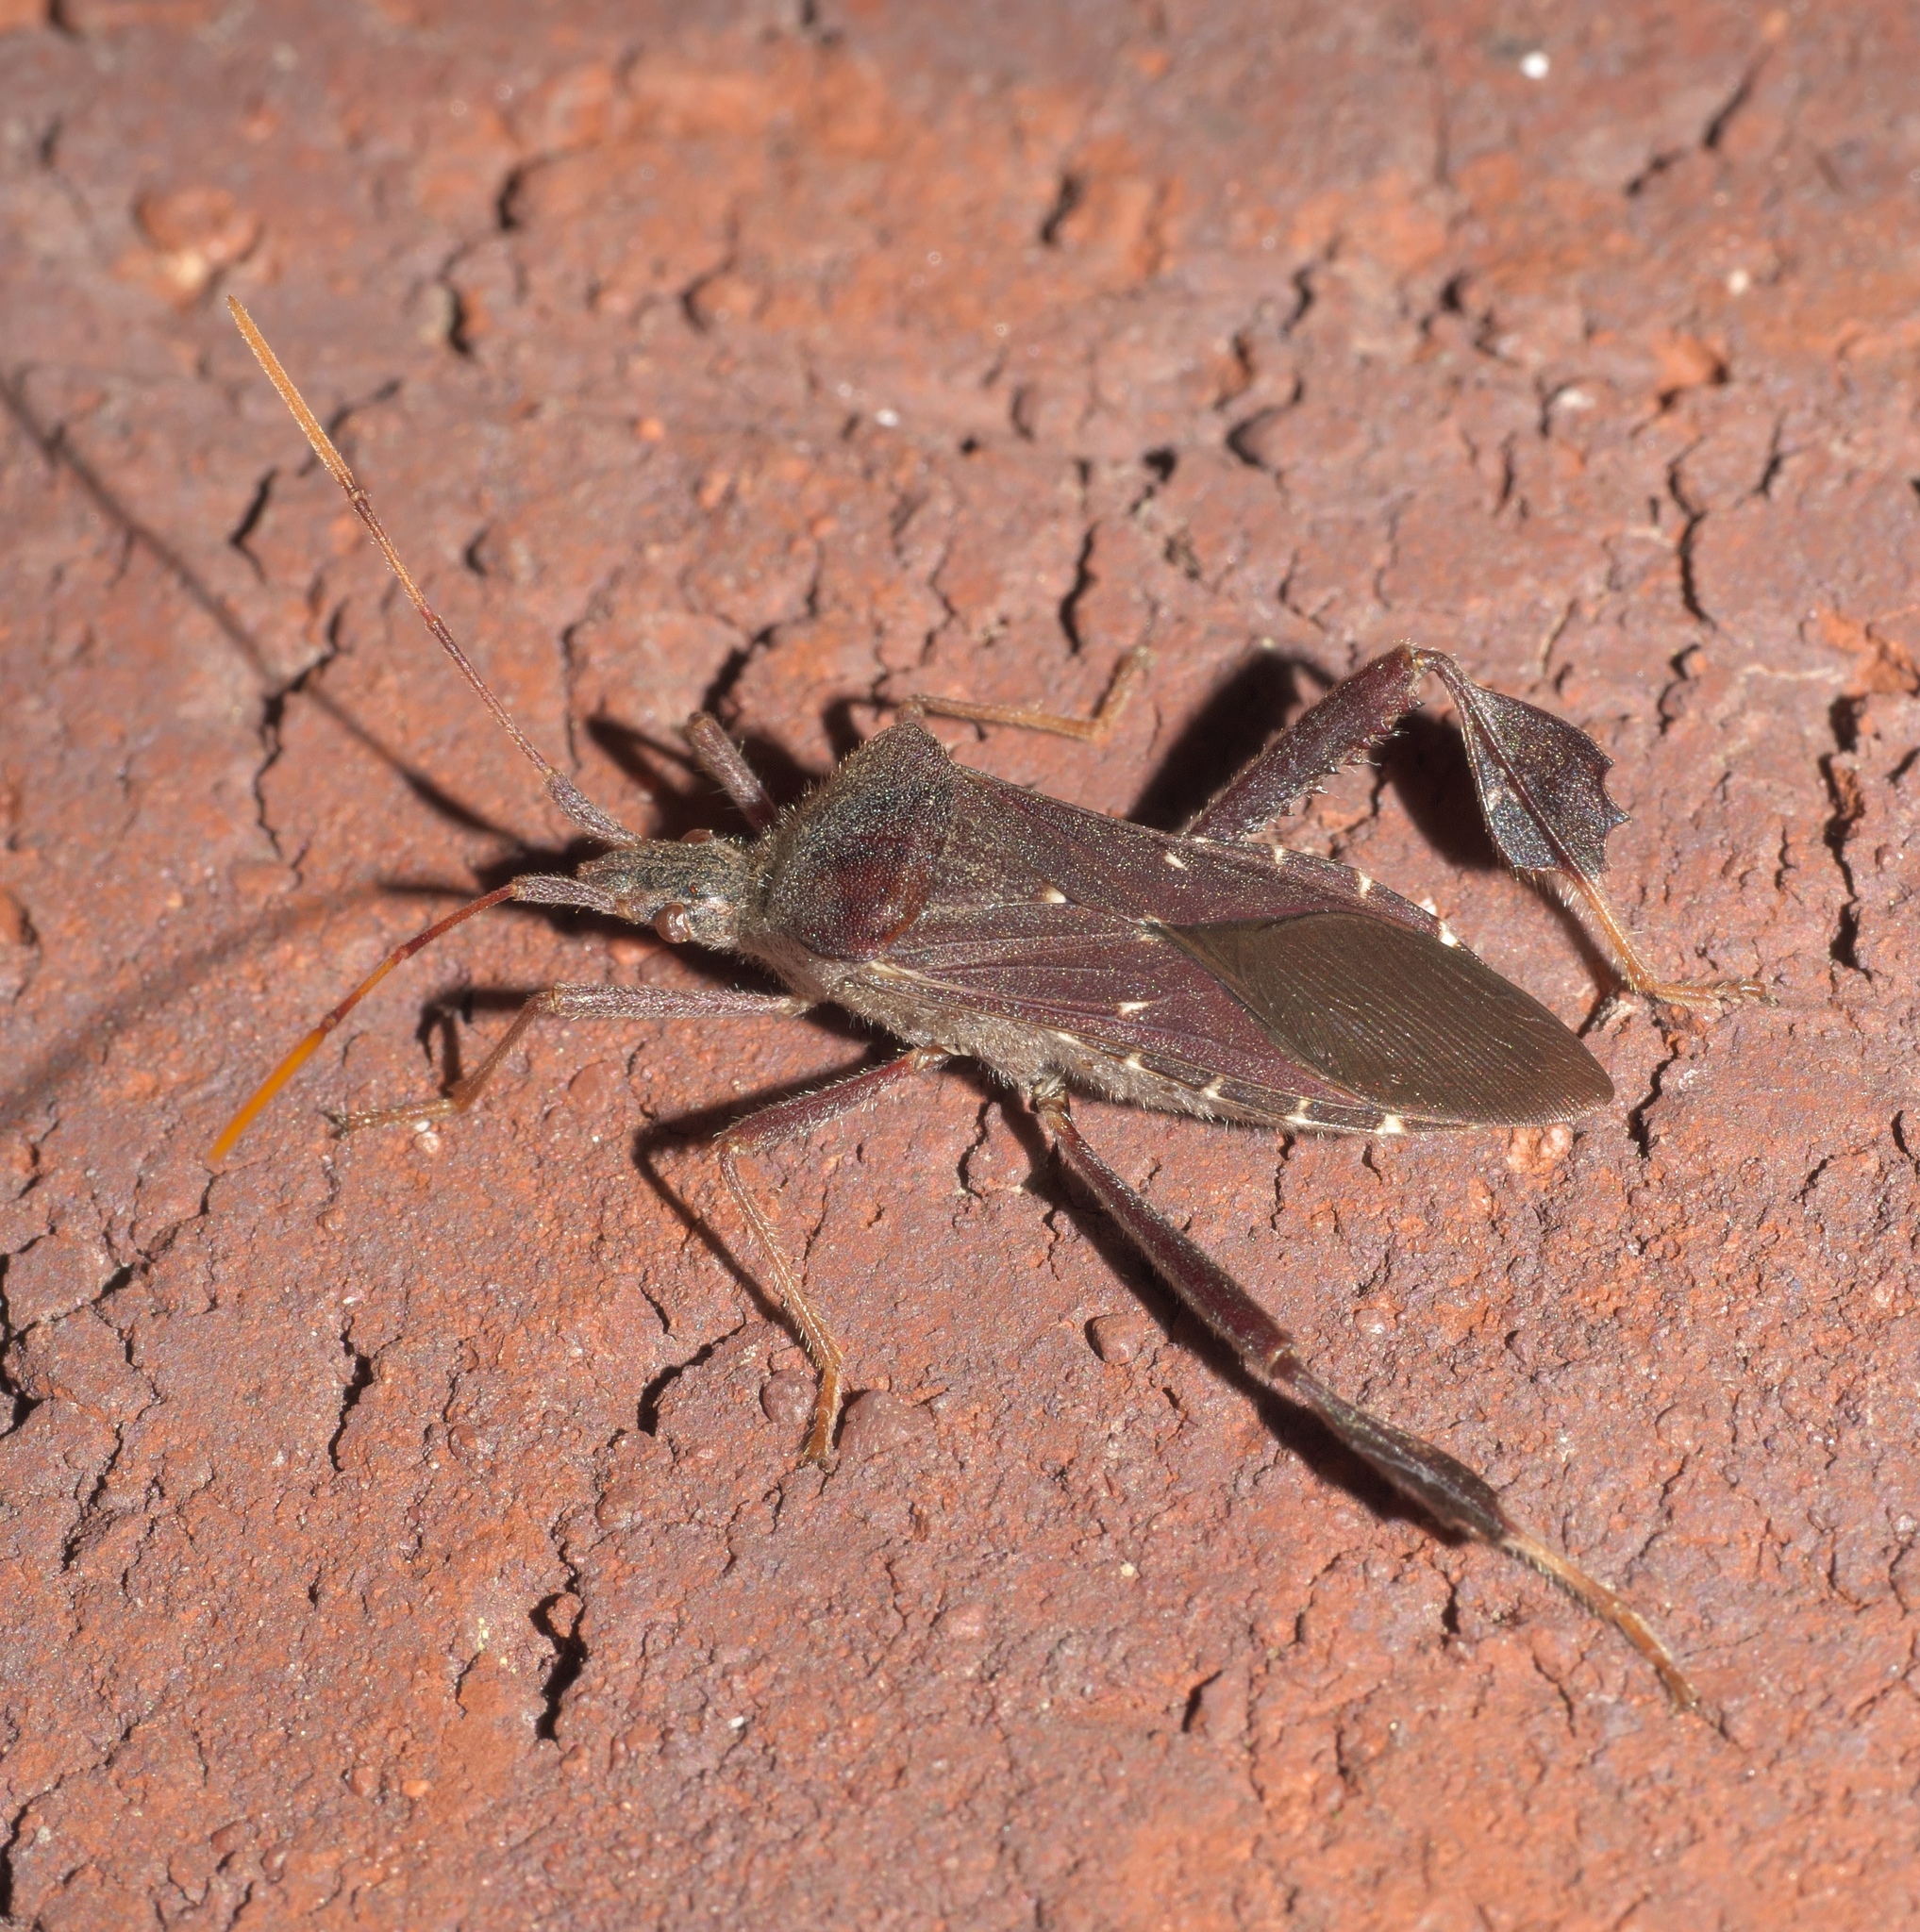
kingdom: Animalia
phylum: Arthropoda
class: Insecta
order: Hemiptera
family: Coreidae
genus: Leptoglossus
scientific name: Leptoglossus oppositus
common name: Northern leaf-footed bug
